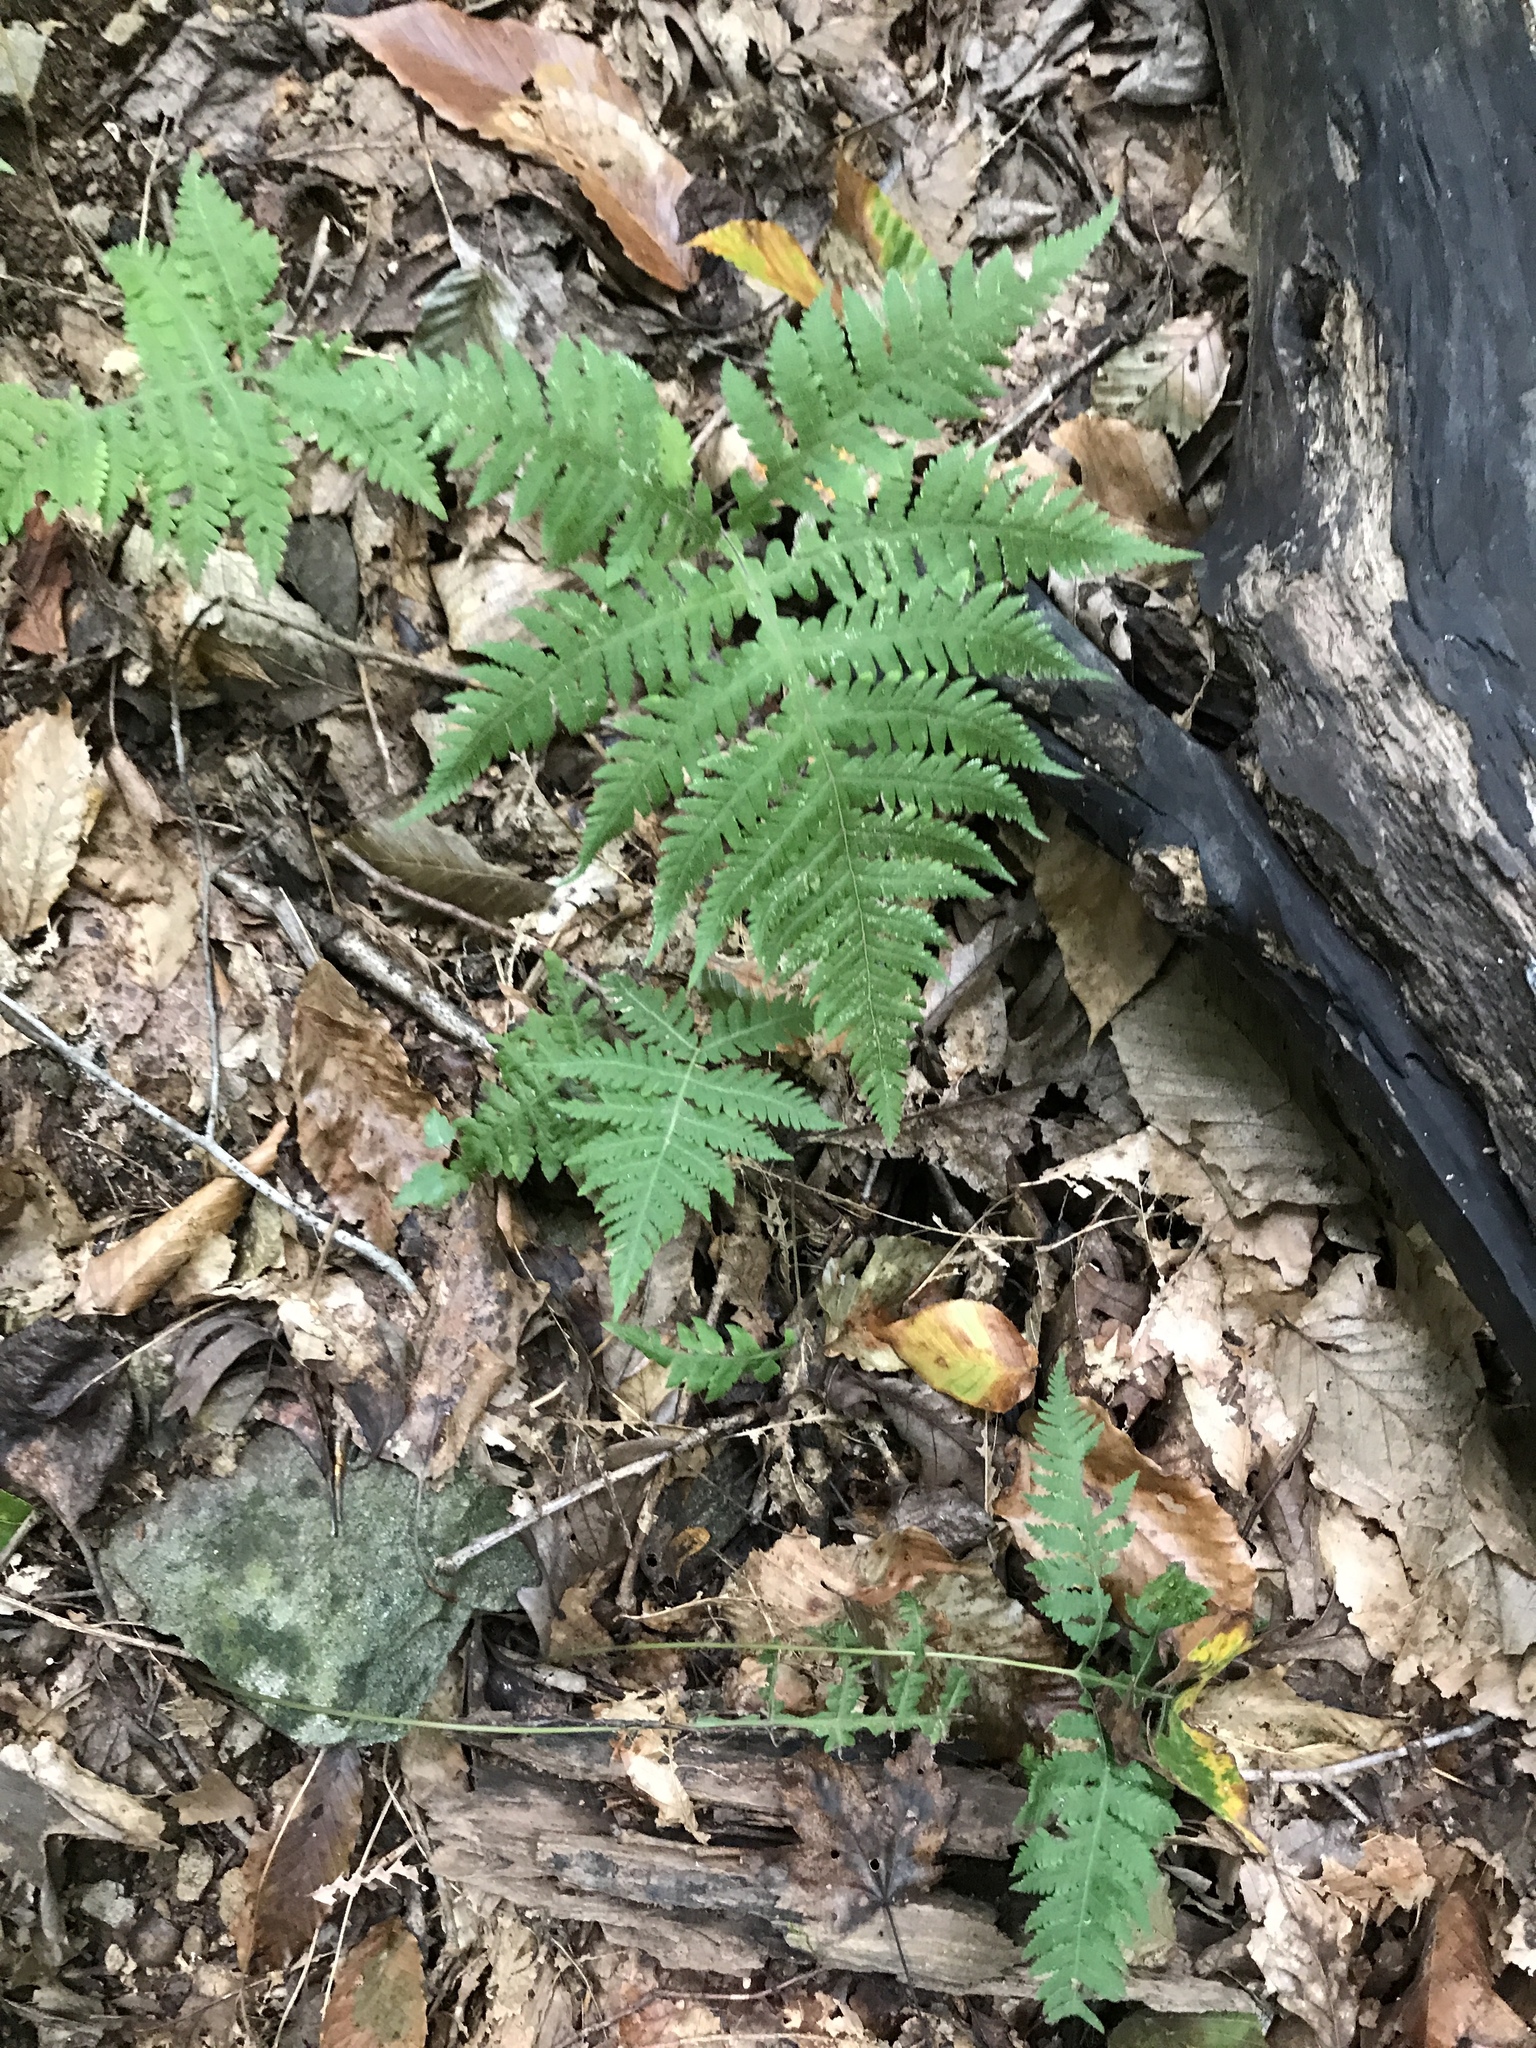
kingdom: Plantae
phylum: Tracheophyta
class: Polypodiopsida
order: Polypodiales
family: Thelypteridaceae
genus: Phegopteris
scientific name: Phegopteris hexagonoptera
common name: Broad beech fern
